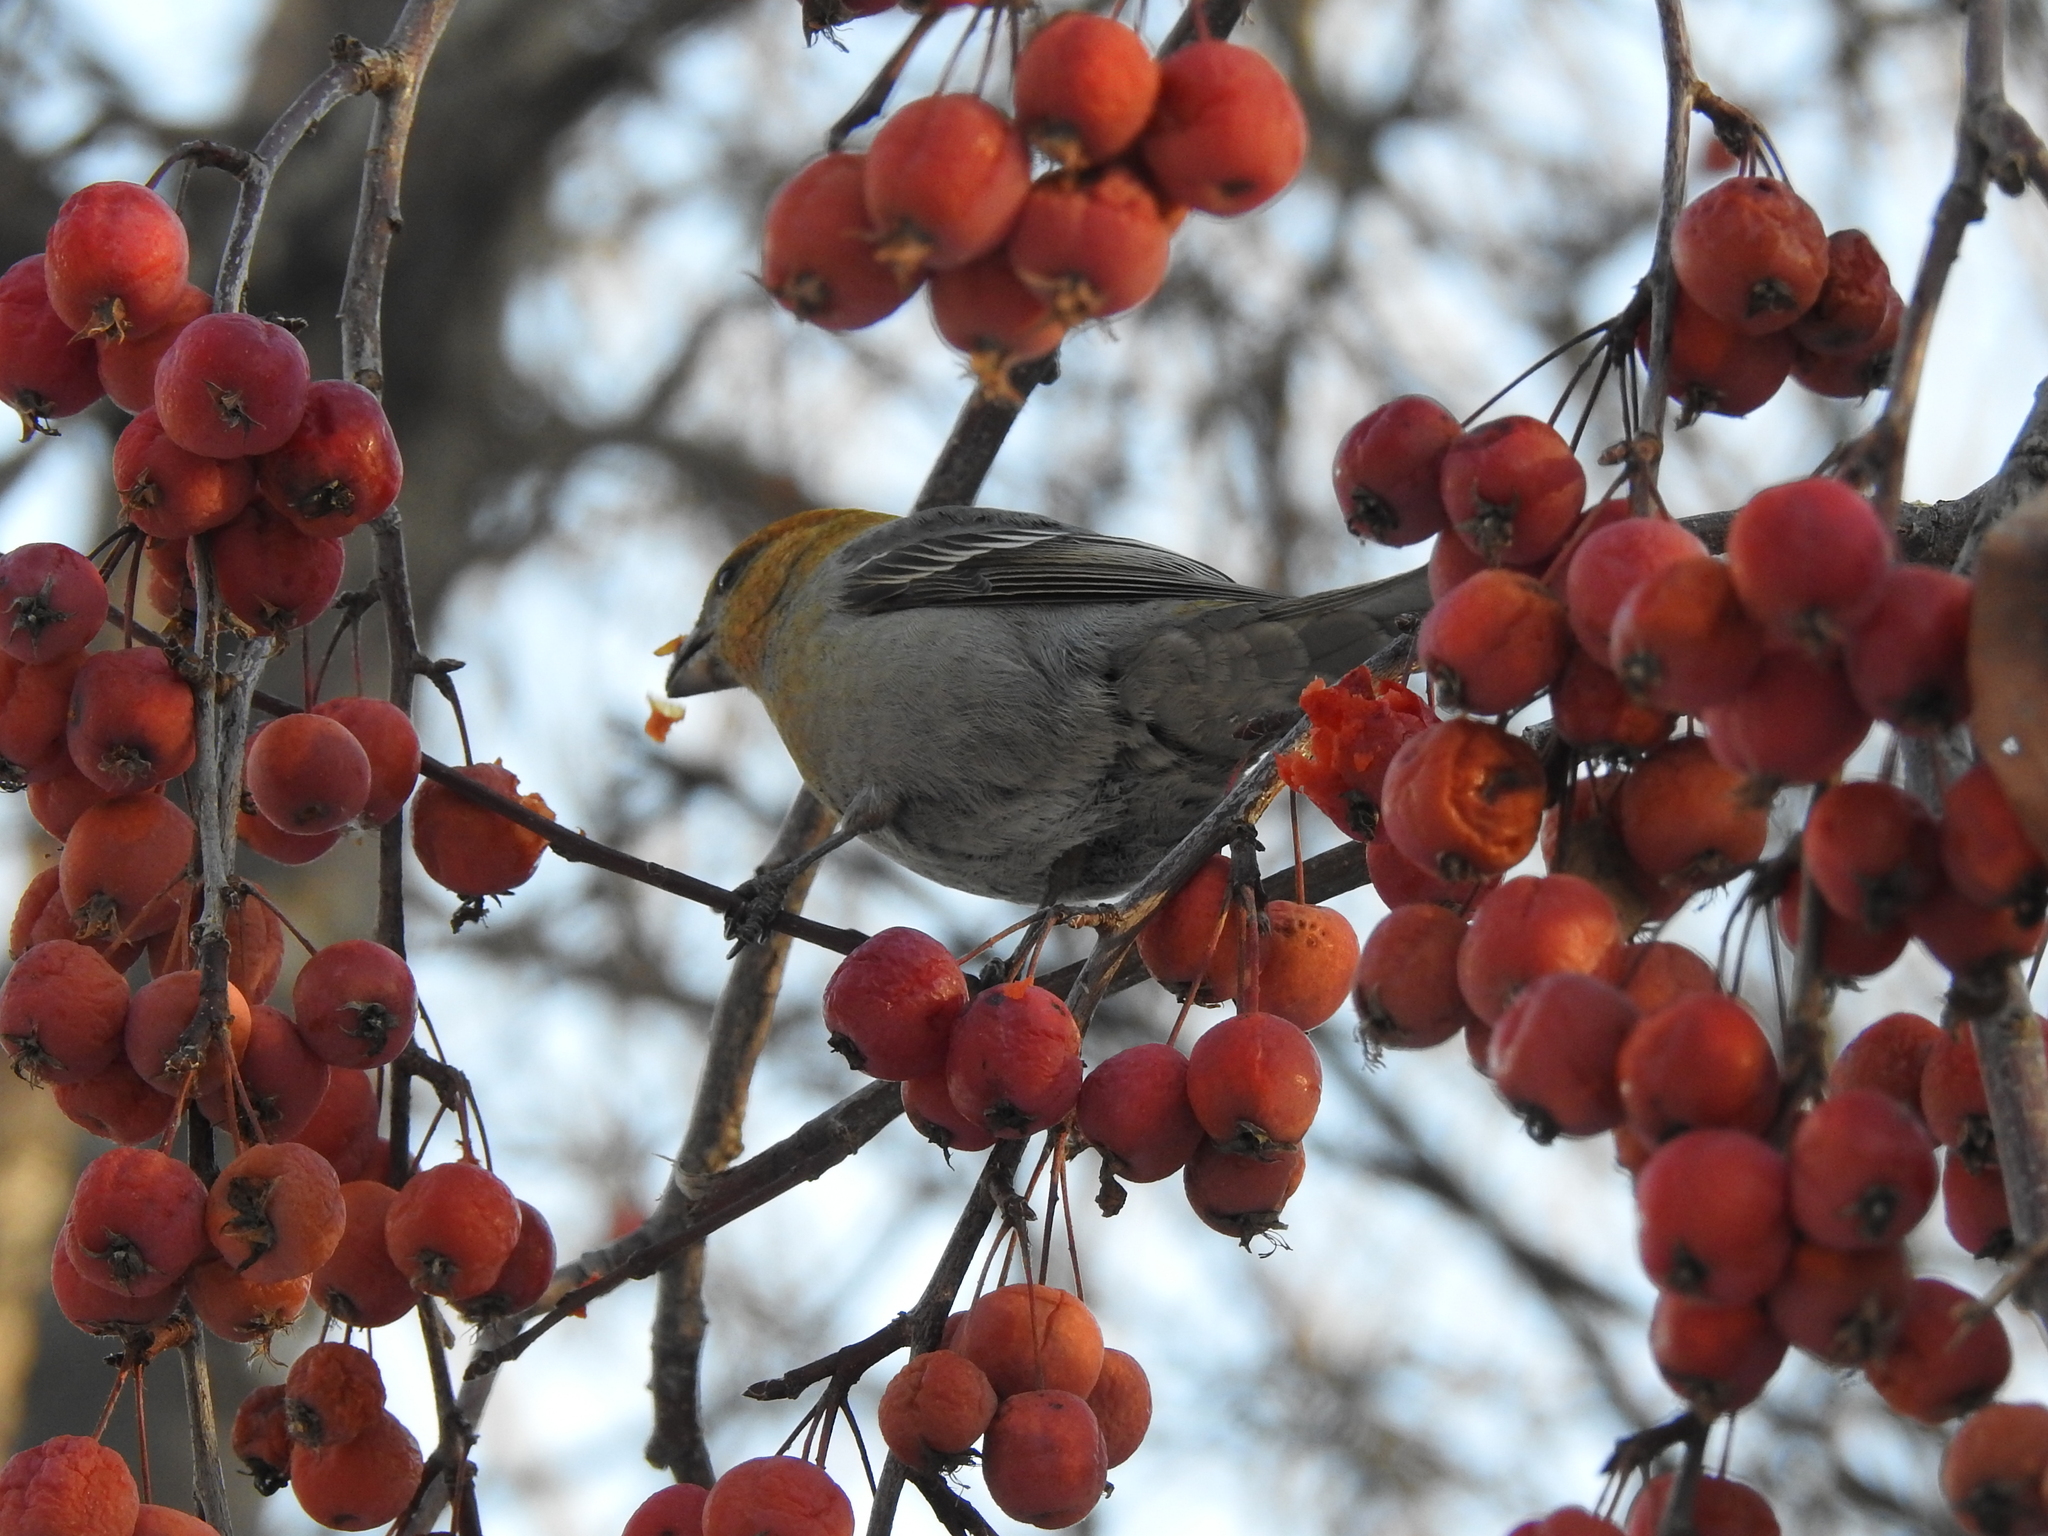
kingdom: Animalia
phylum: Chordata
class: Aves
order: Passeriformes
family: Fringillidae
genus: Pinicola
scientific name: Pinicola enucleator
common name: Pine grosbeak
